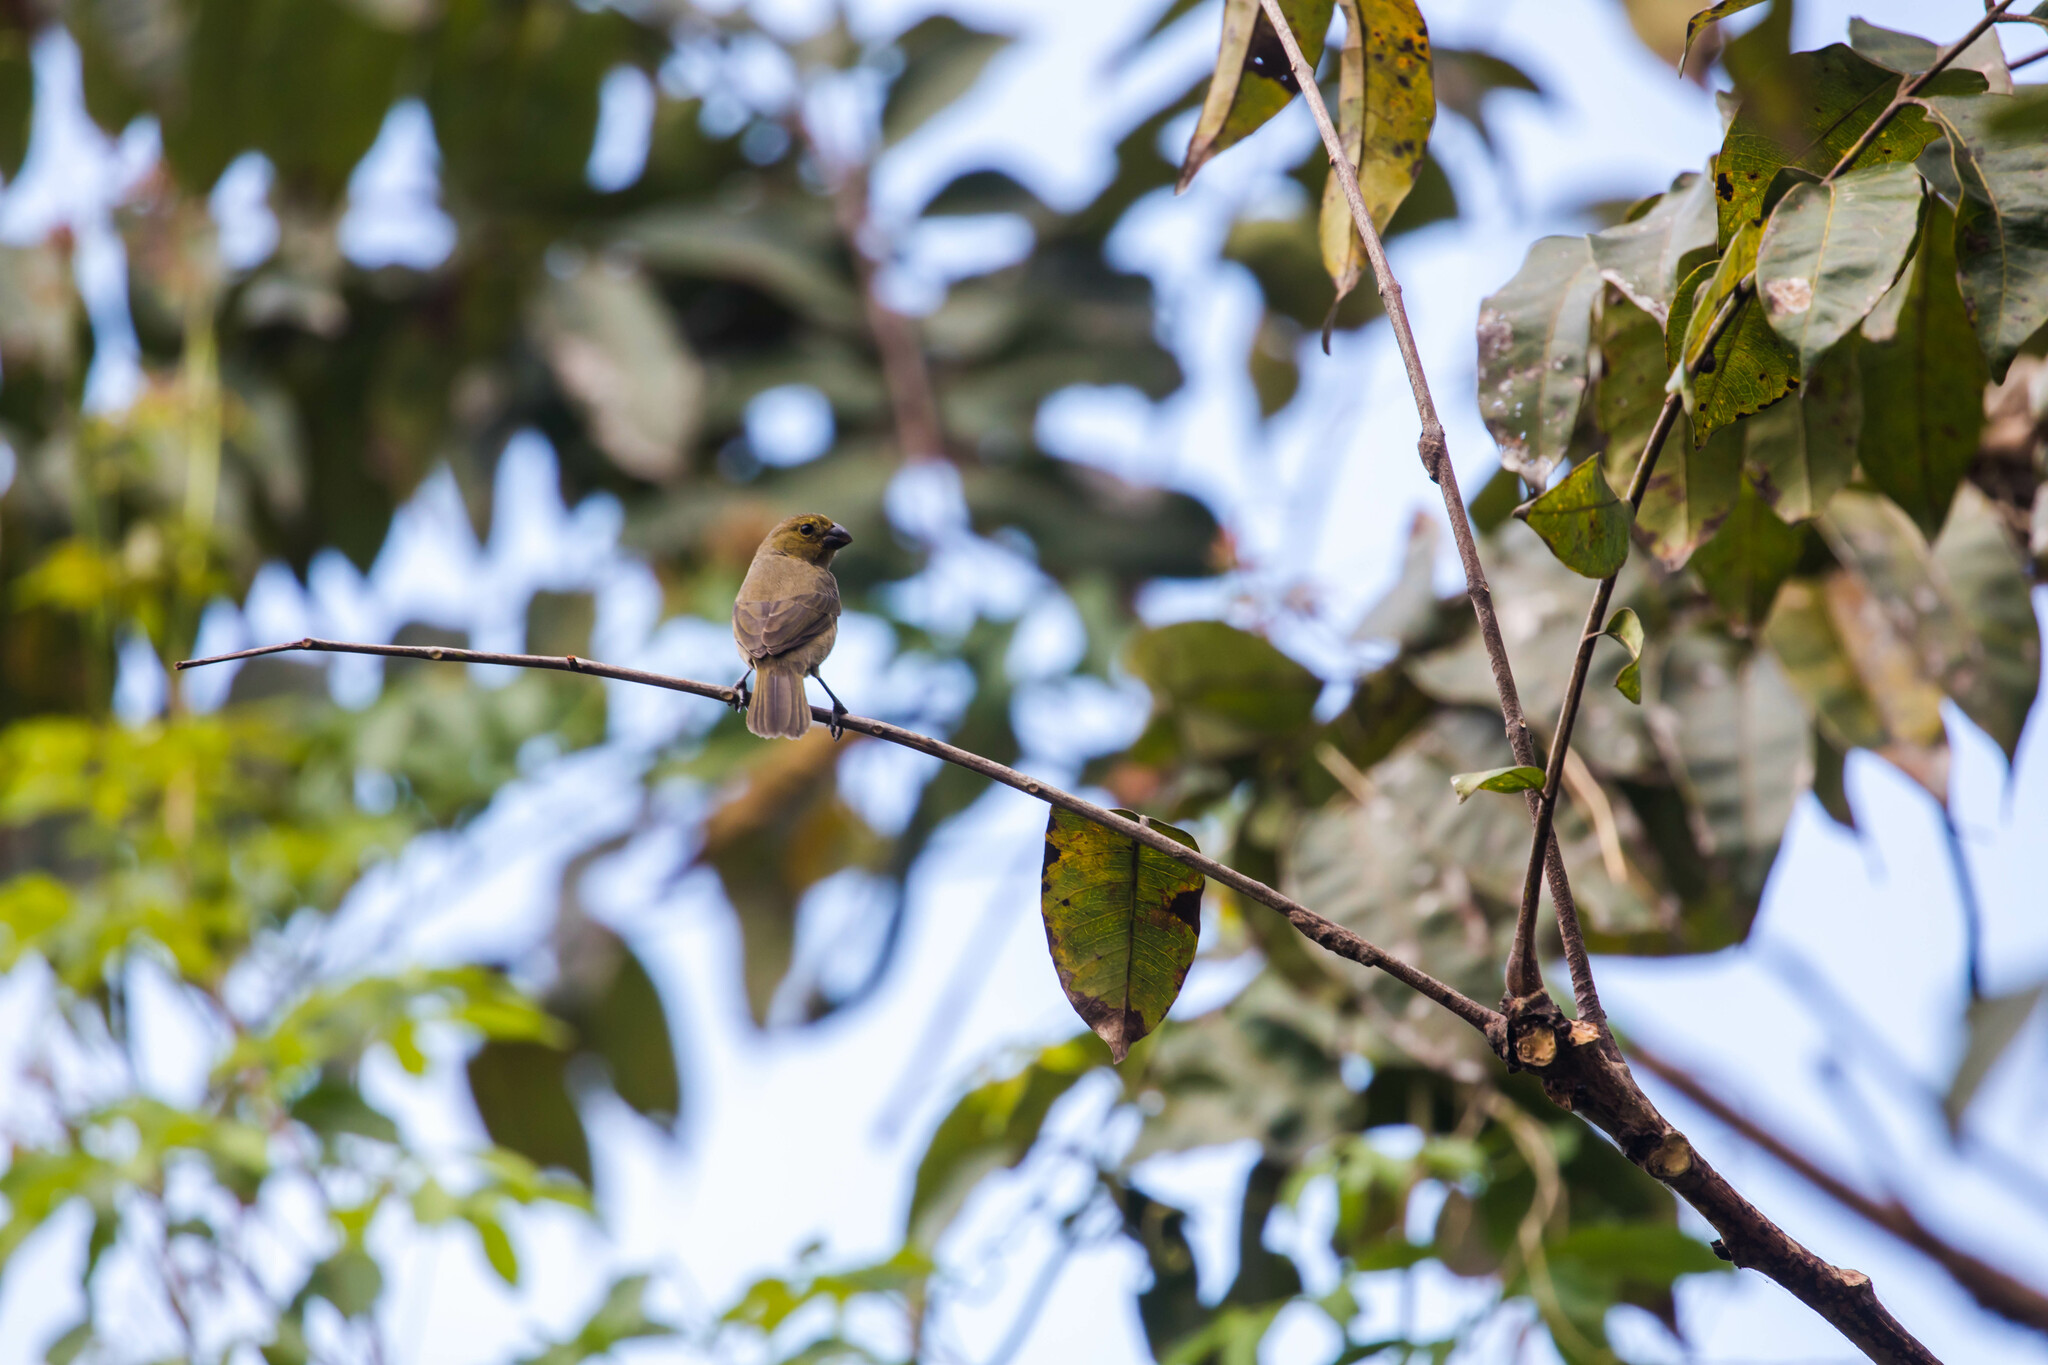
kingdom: Animalia
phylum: Chordata
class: Aves
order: Passeriformes
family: Thraupidae
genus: Sporophila
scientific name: Sporophila corvina
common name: Variable seedeater
